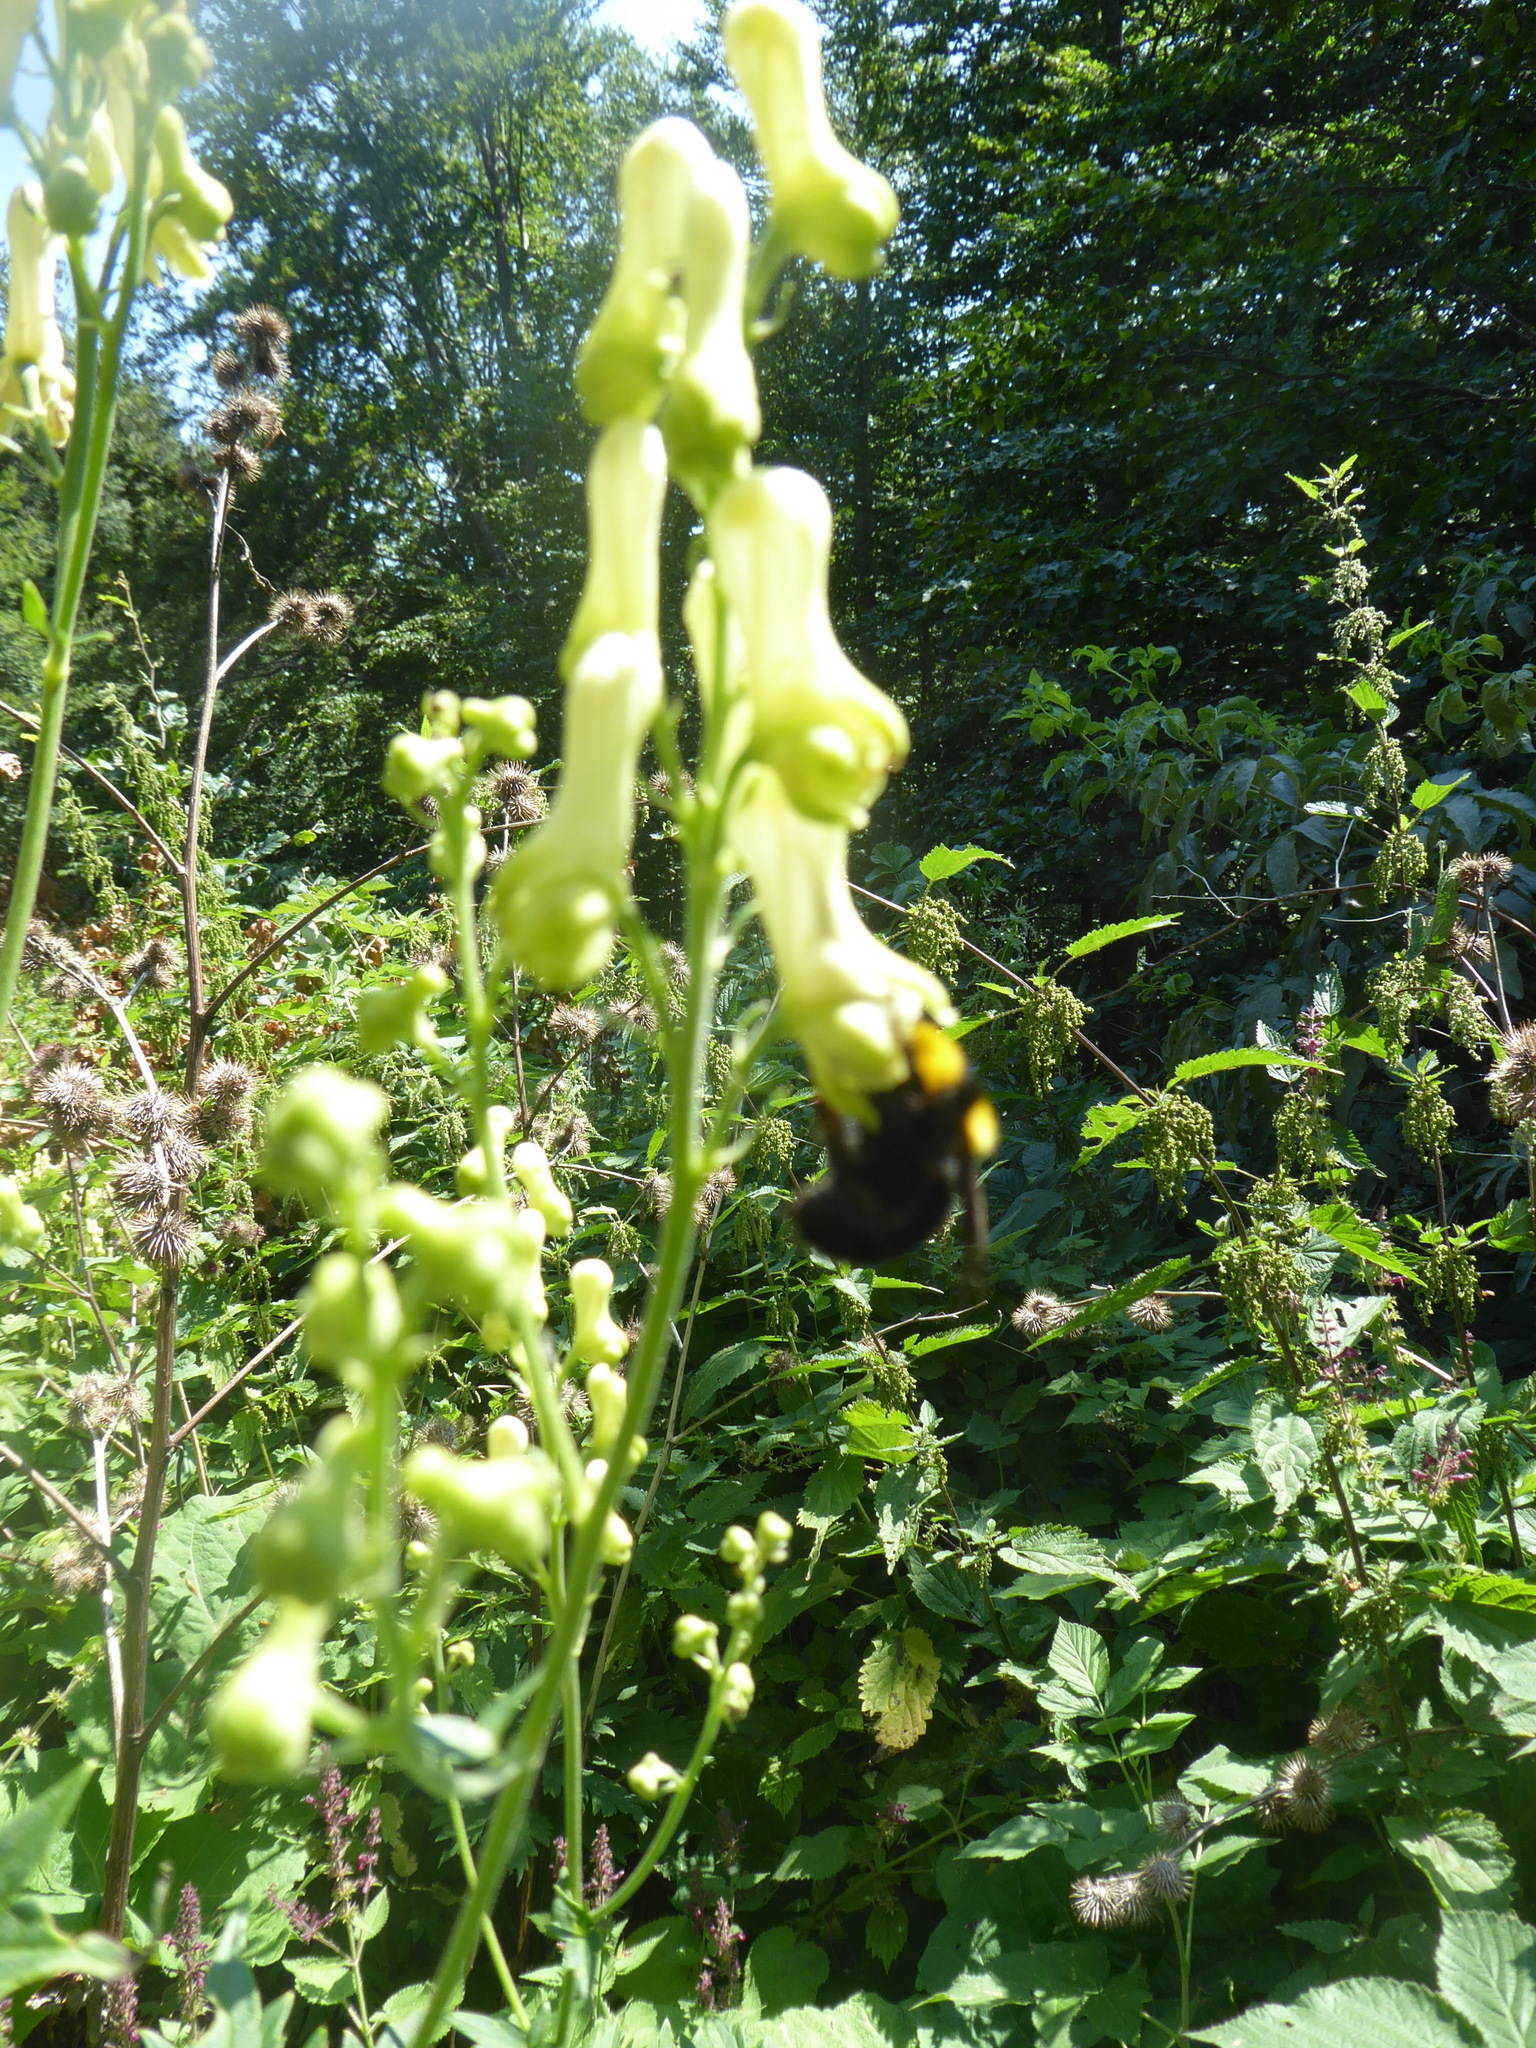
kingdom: Plantae
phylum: Tracheophyta
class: Magnoliopsida
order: Ranunculales
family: Ranunculaceae
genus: Aconitum
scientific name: Aconitum lycoctonum
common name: Wolf's-bane
